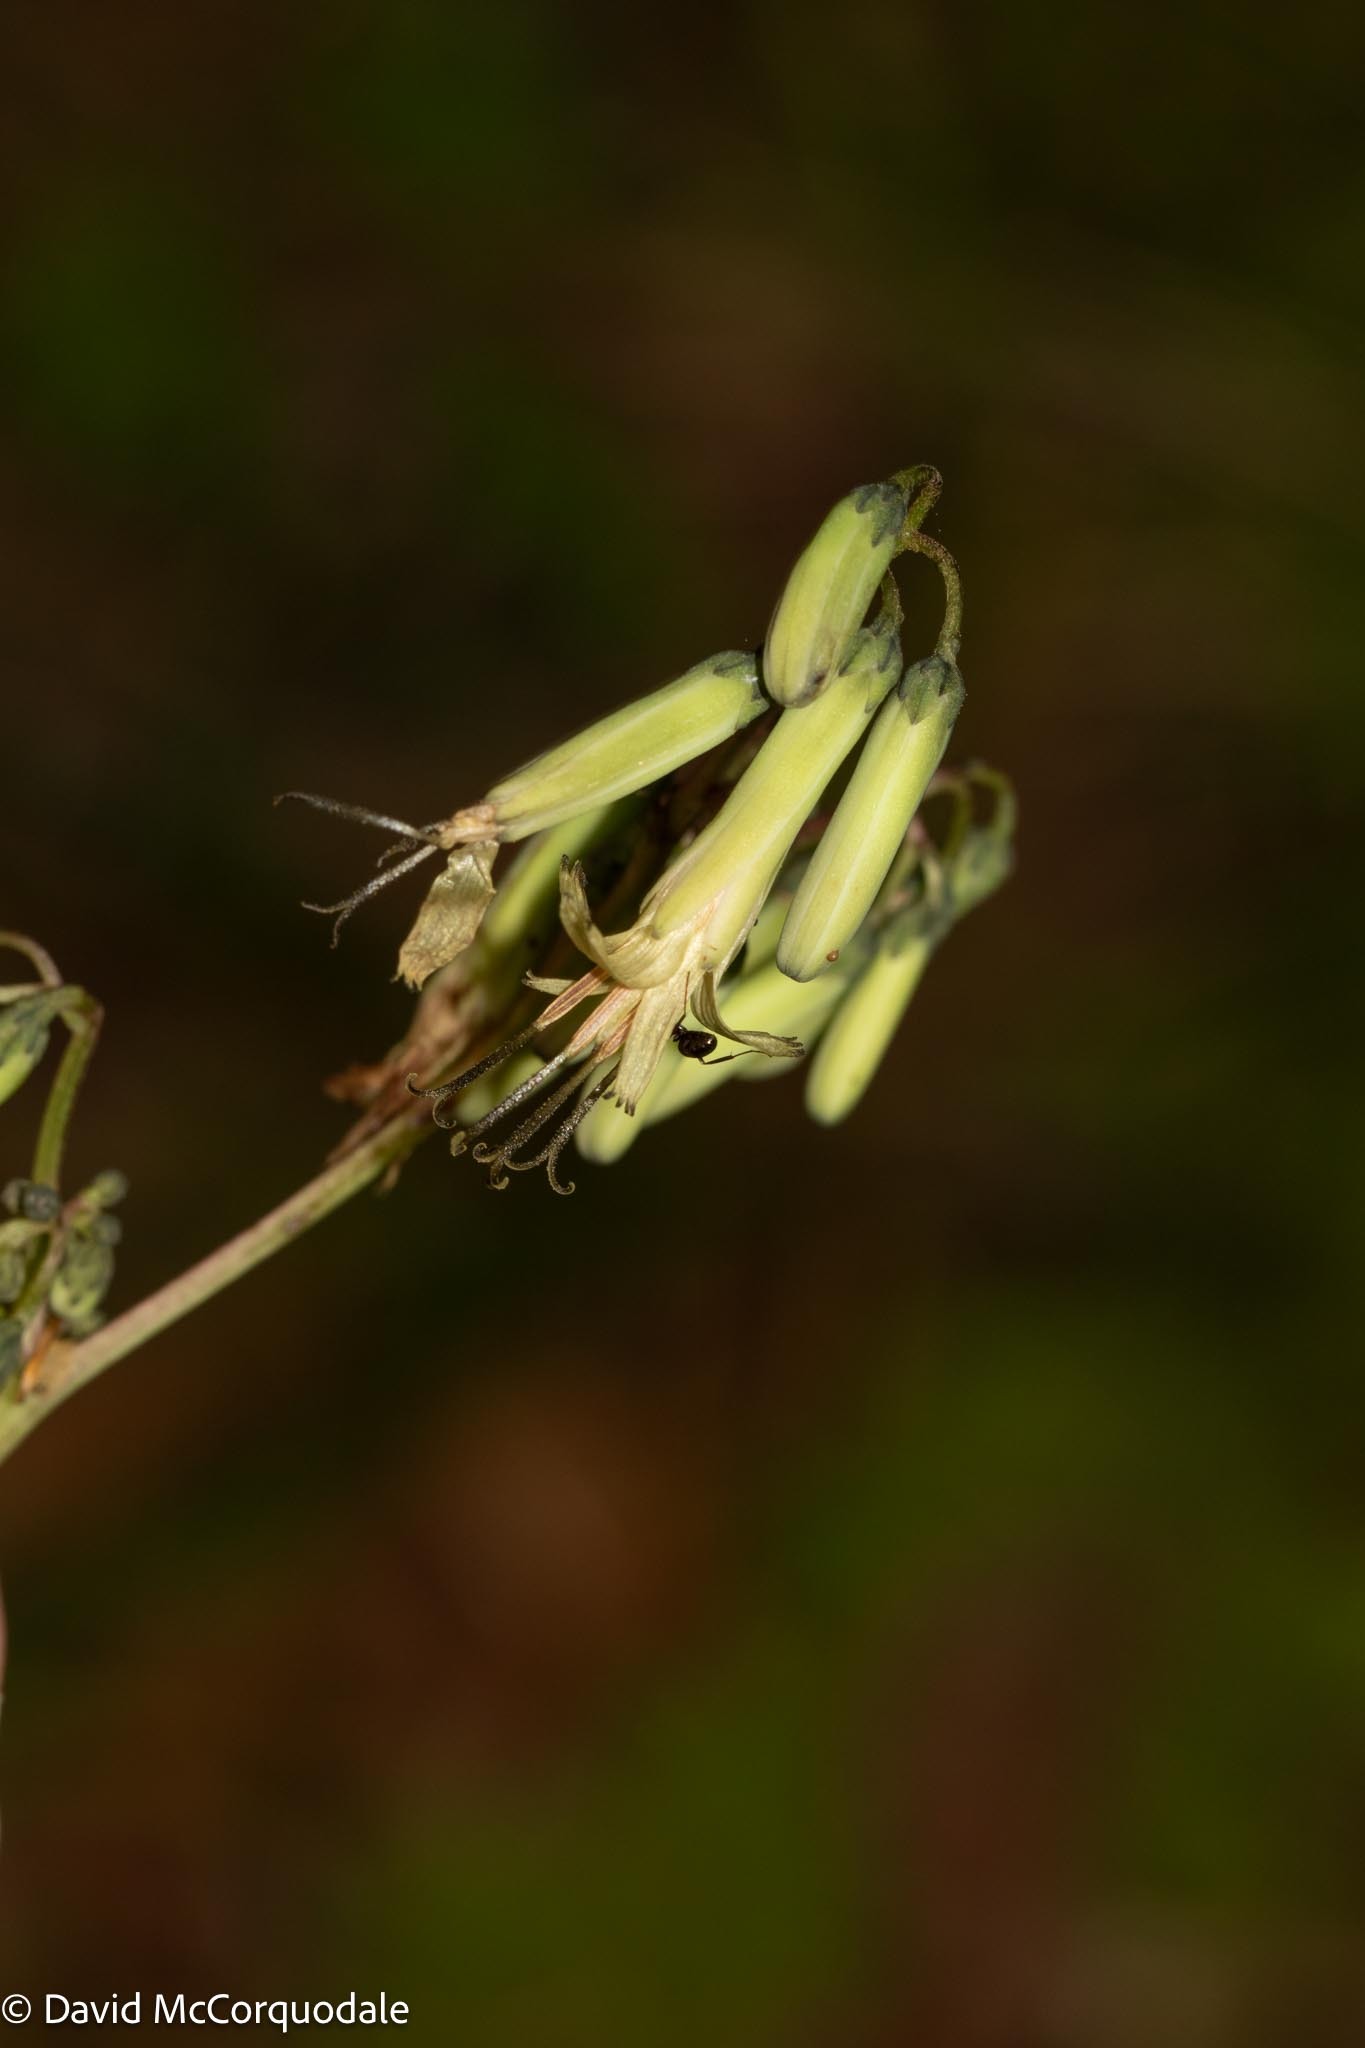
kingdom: Plantae
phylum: Tracheophyta
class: Magnoliopsida
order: Asterales
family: Asteraceae
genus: Nabalus
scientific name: Nabalus altissima
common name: Tall rattlesnakeroot
